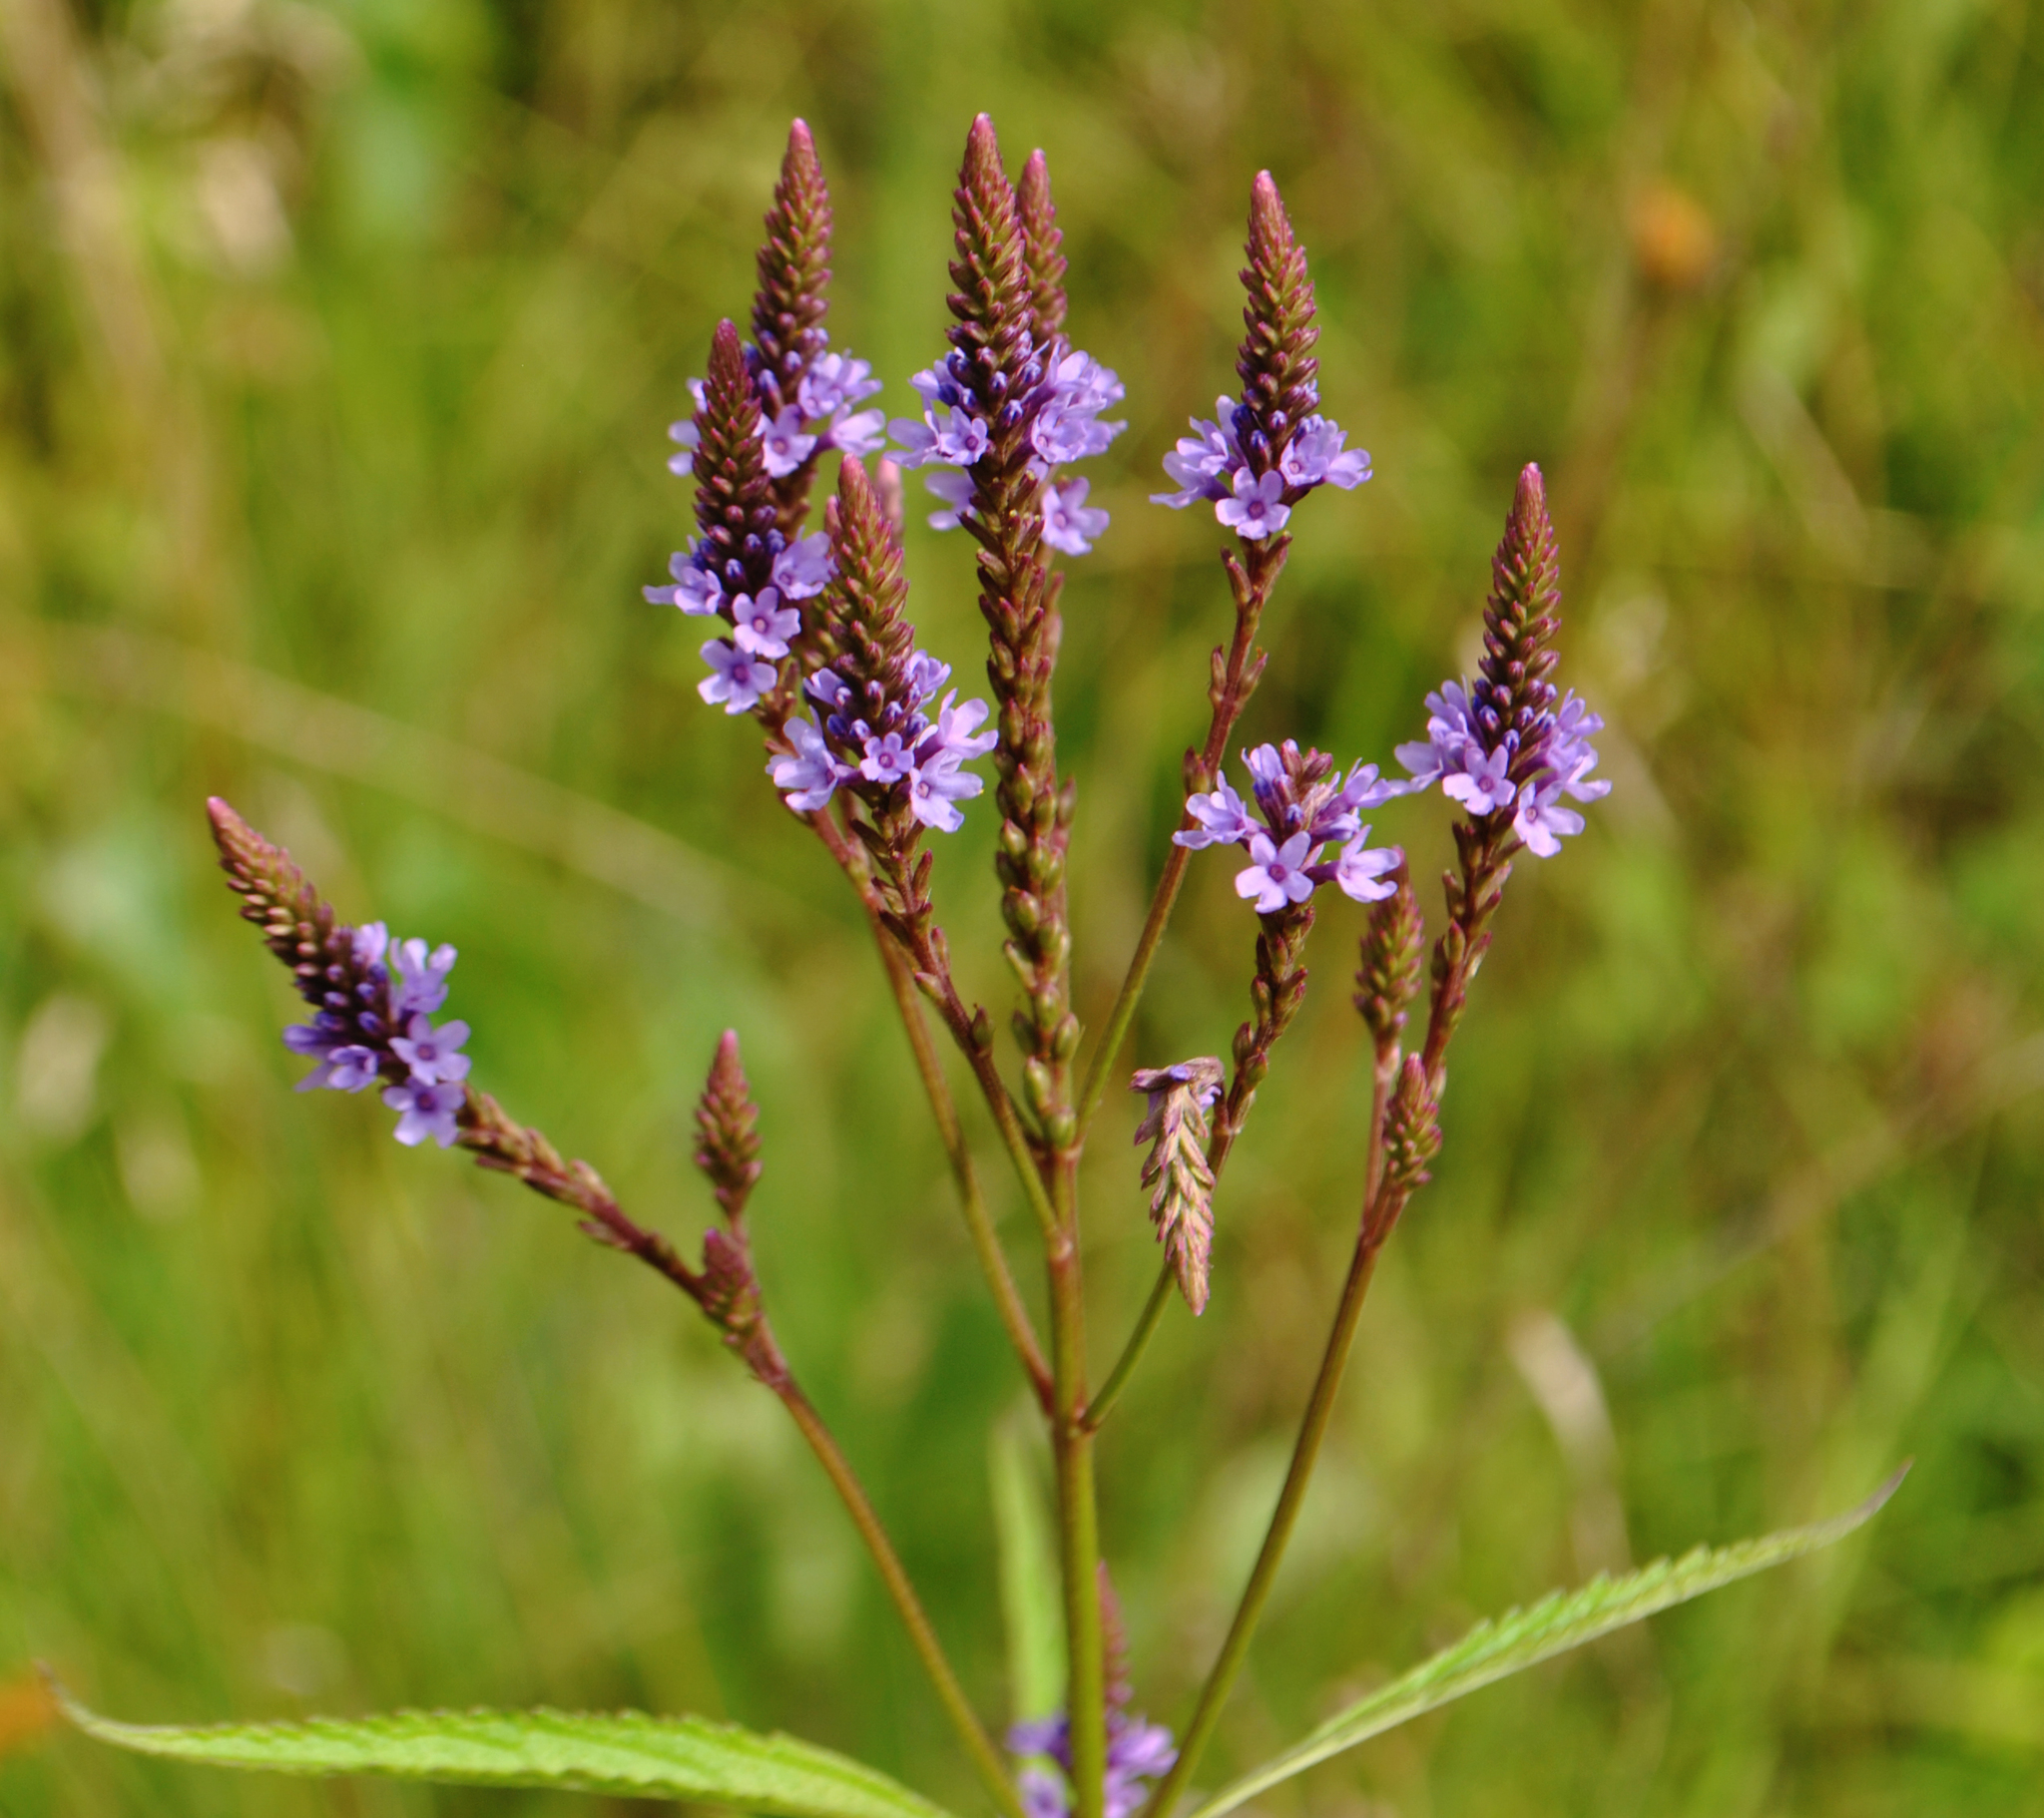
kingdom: Plantae
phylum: Tracheophyta
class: Magnoliopsida
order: Lamiales
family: Verbenaceae
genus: Verbena
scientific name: Verbena hastata
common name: American blue vervain
